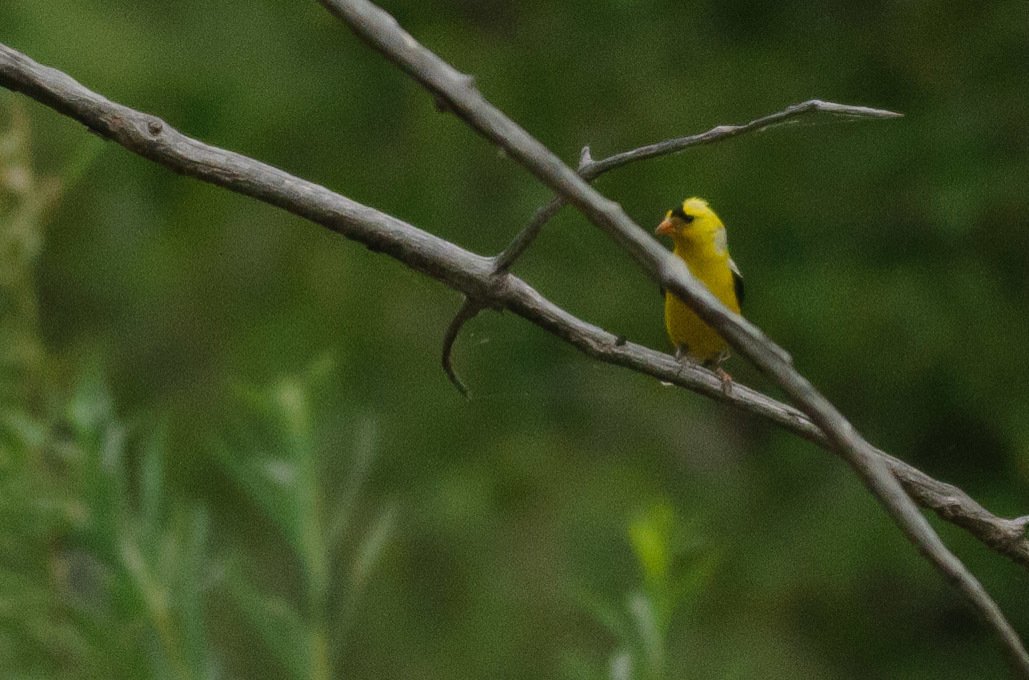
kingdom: Animalia
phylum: Chordata
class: Aves
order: Passeriformes
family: Fringillidae
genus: Spinus
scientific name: Spinus tristis
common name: American goldfinch
